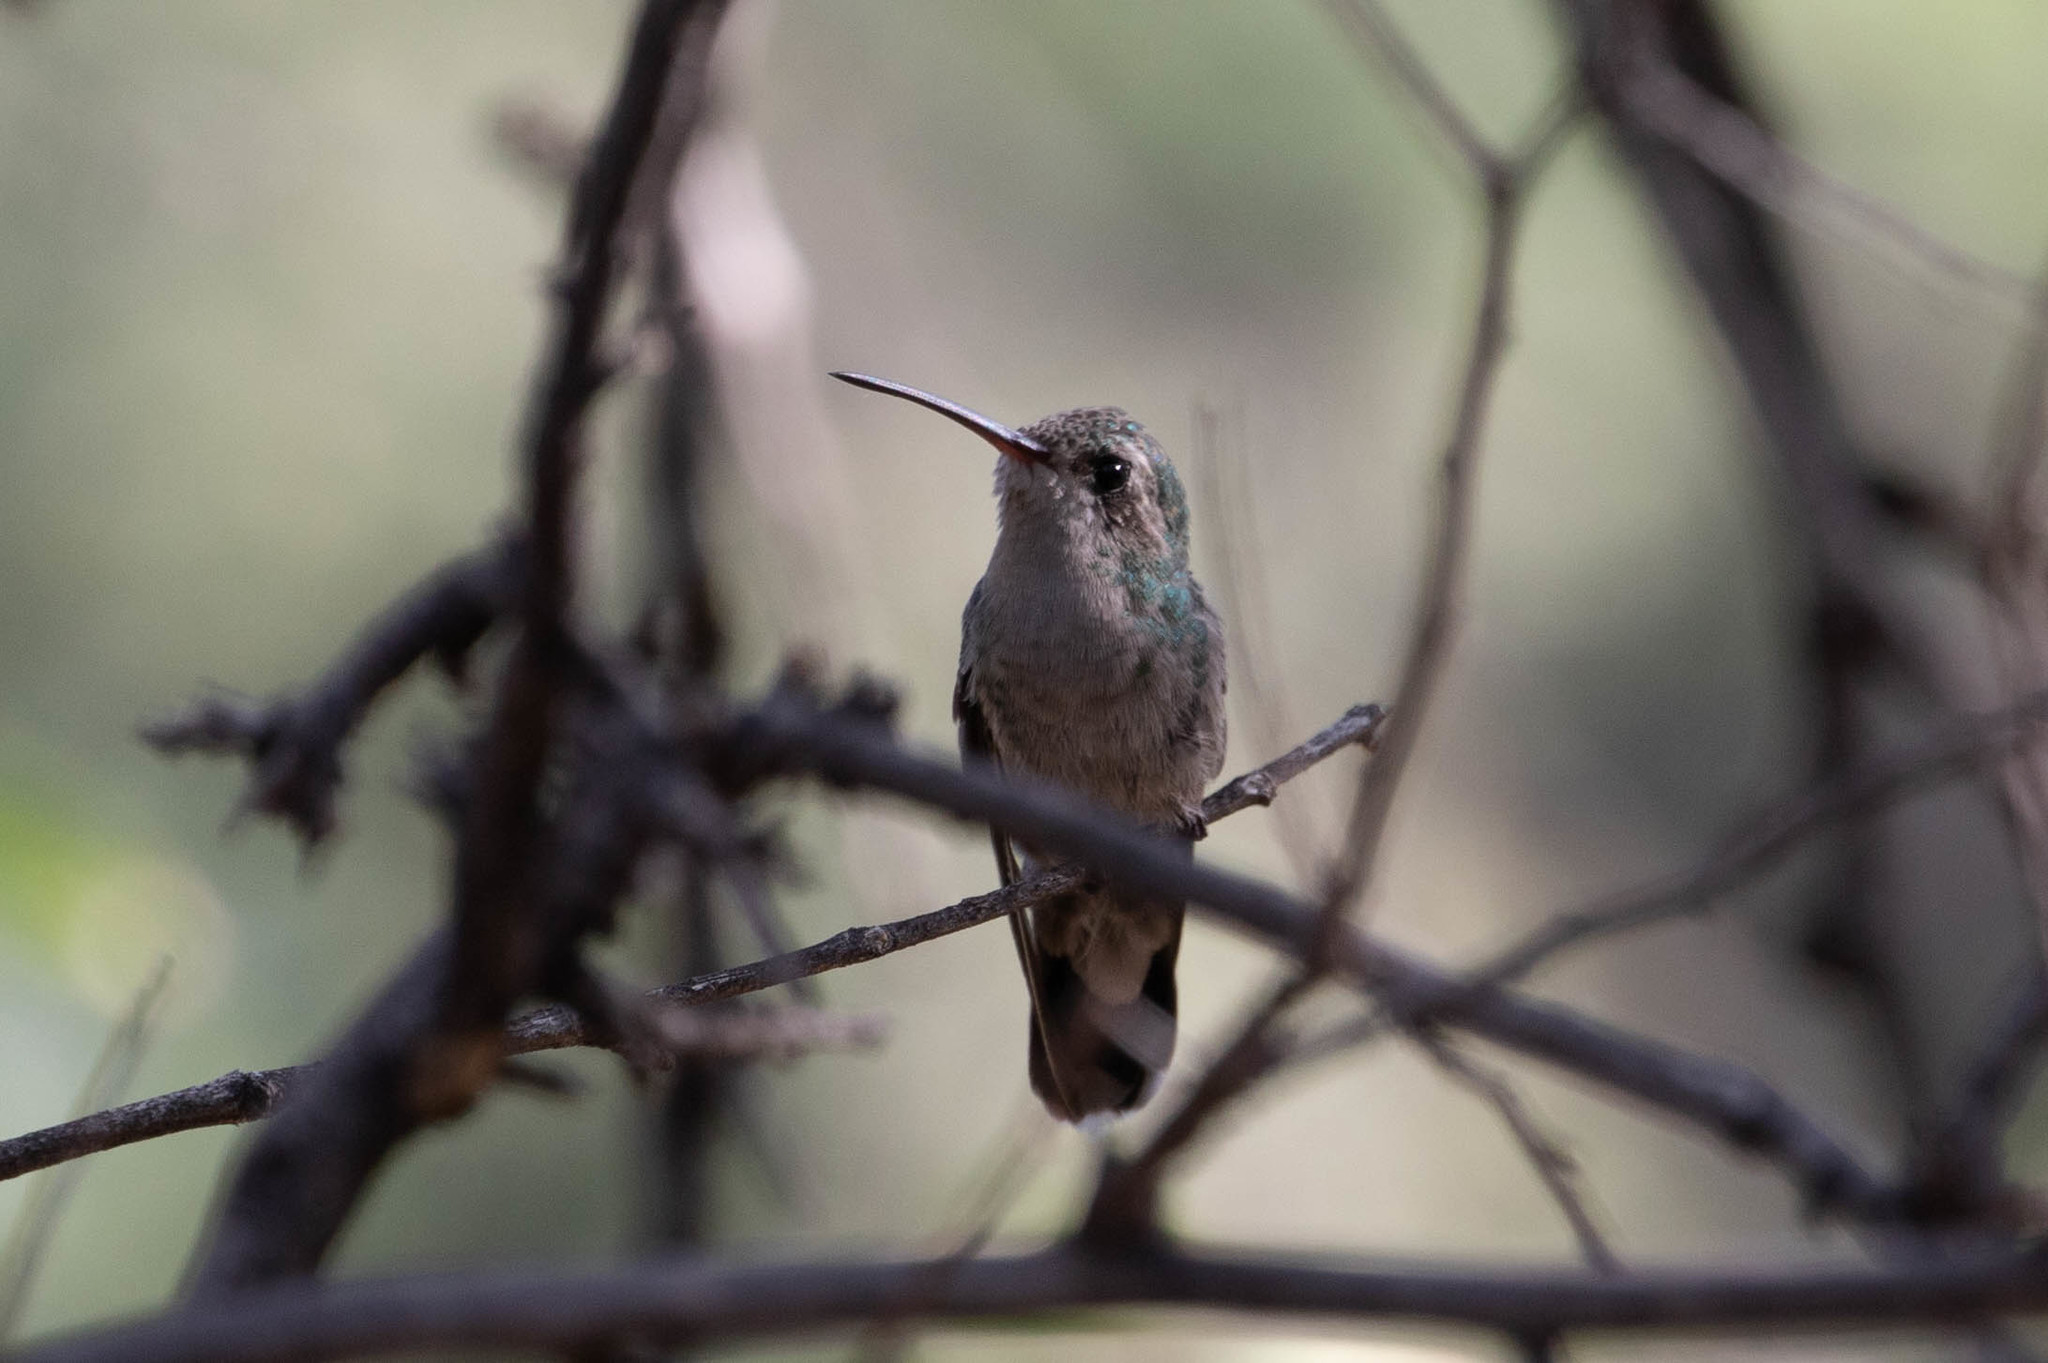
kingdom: Animalia
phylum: Chordata
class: Aves
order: Apodiformes
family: Trochilidae
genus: Cynanthus
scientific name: Cynanthus latirostris
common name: Broad-billed hummingbird
